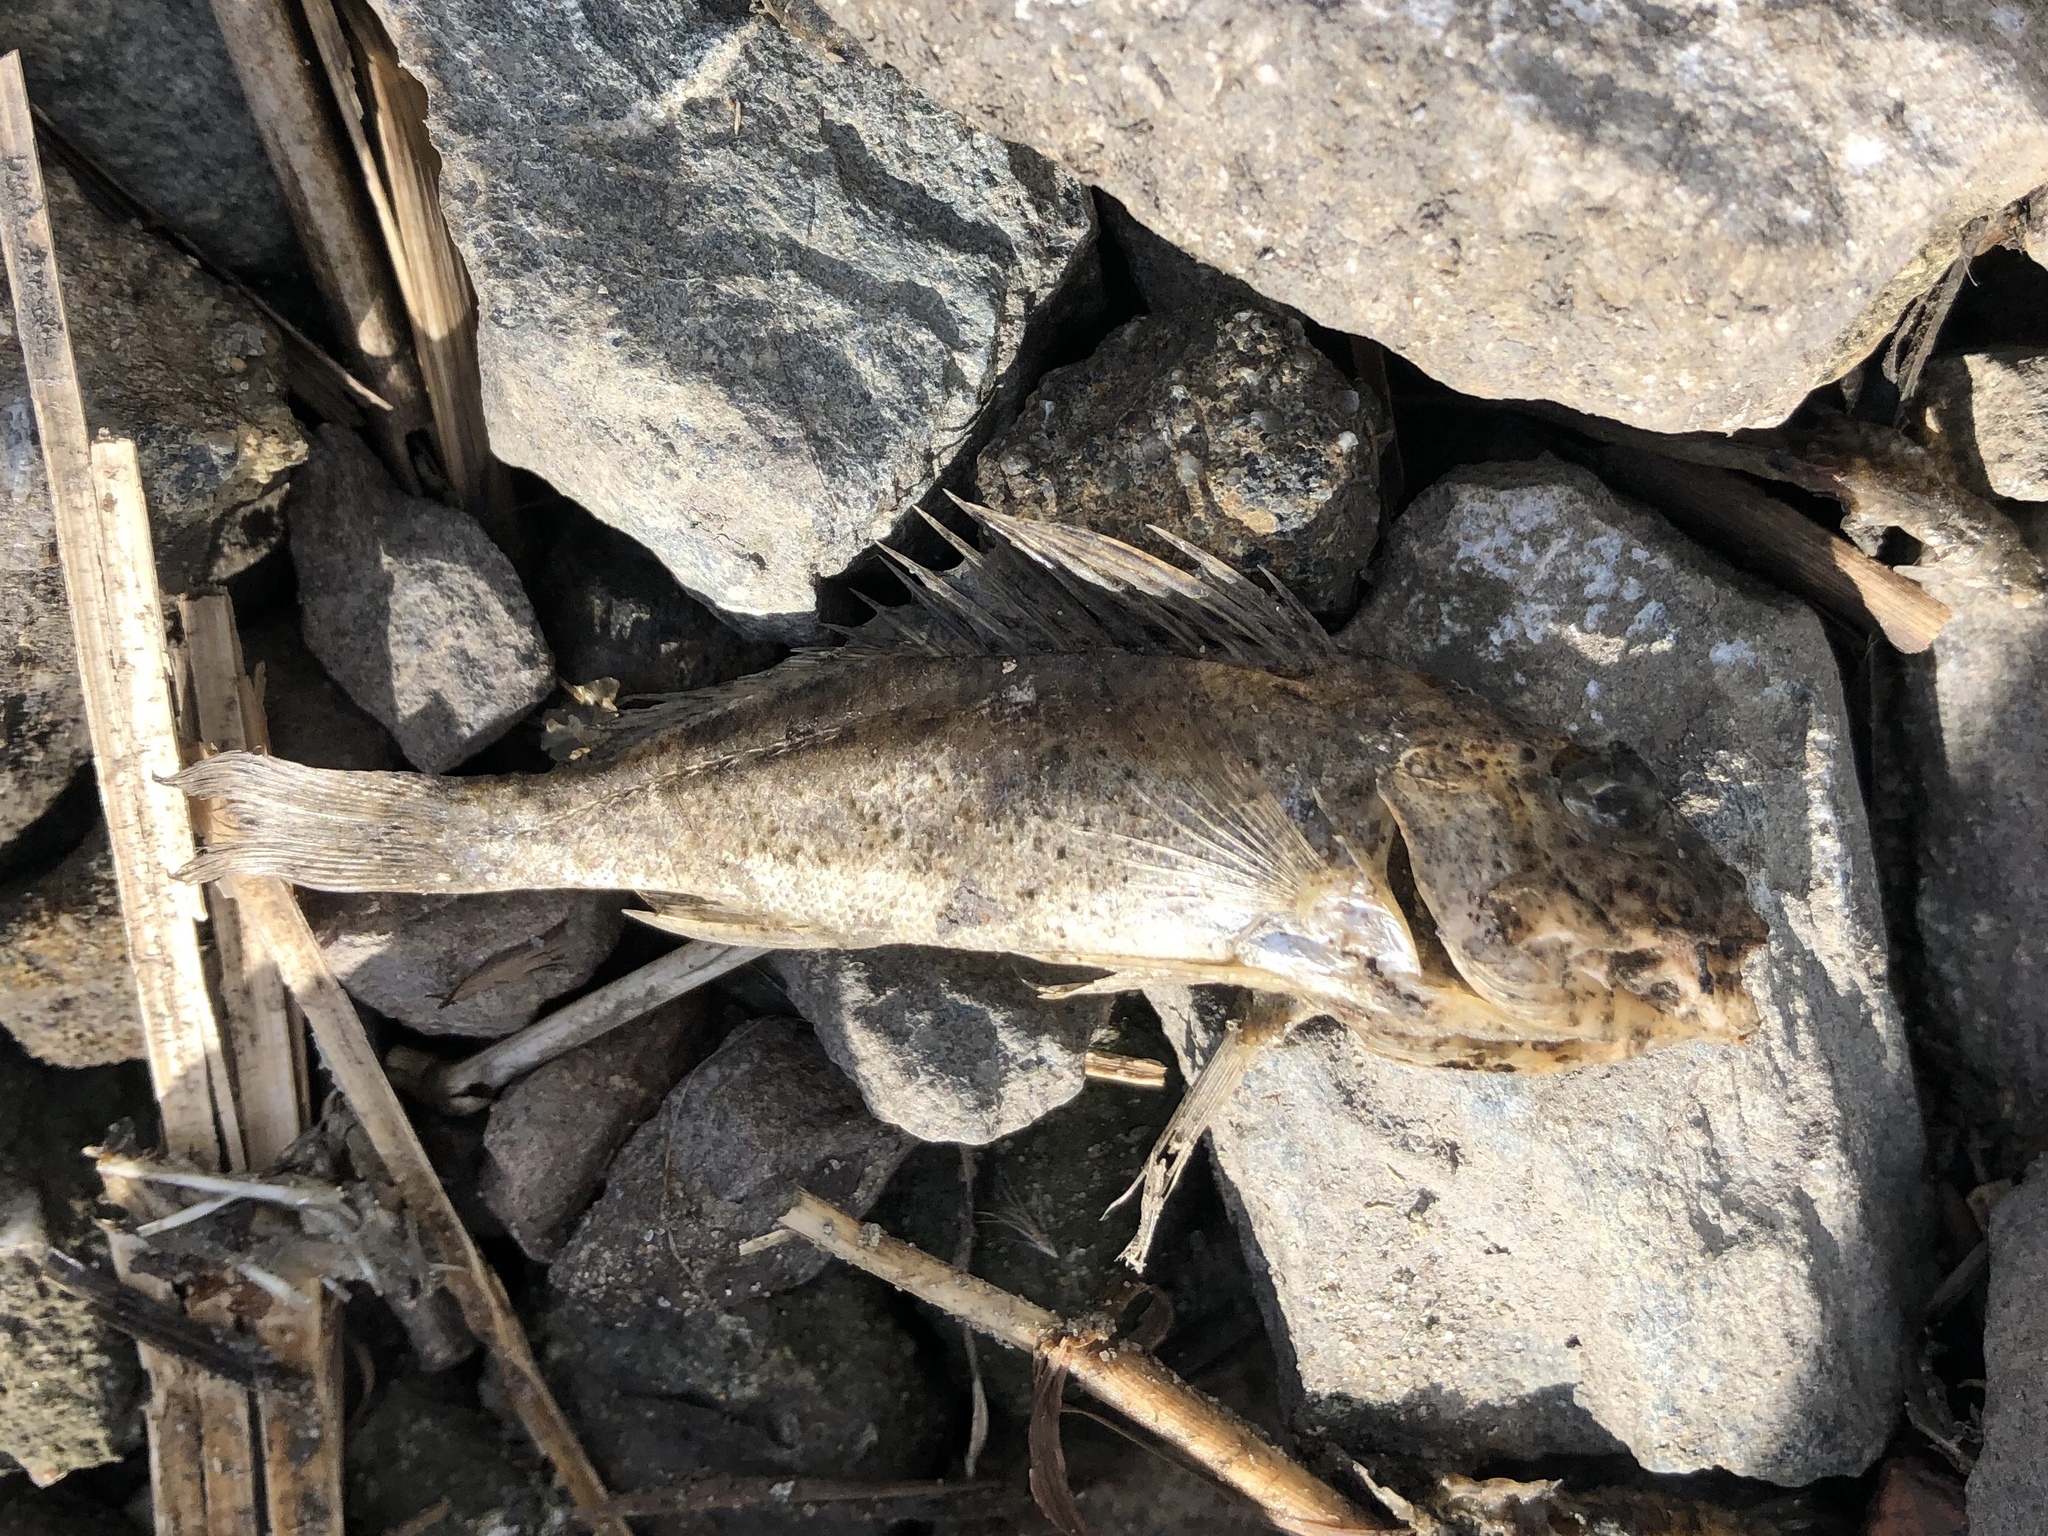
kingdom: Animalia
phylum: Chordata
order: Perciformes
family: Percidae
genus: Gymnocephalus
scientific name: Gymnocephalus cernua
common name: Ruffe
